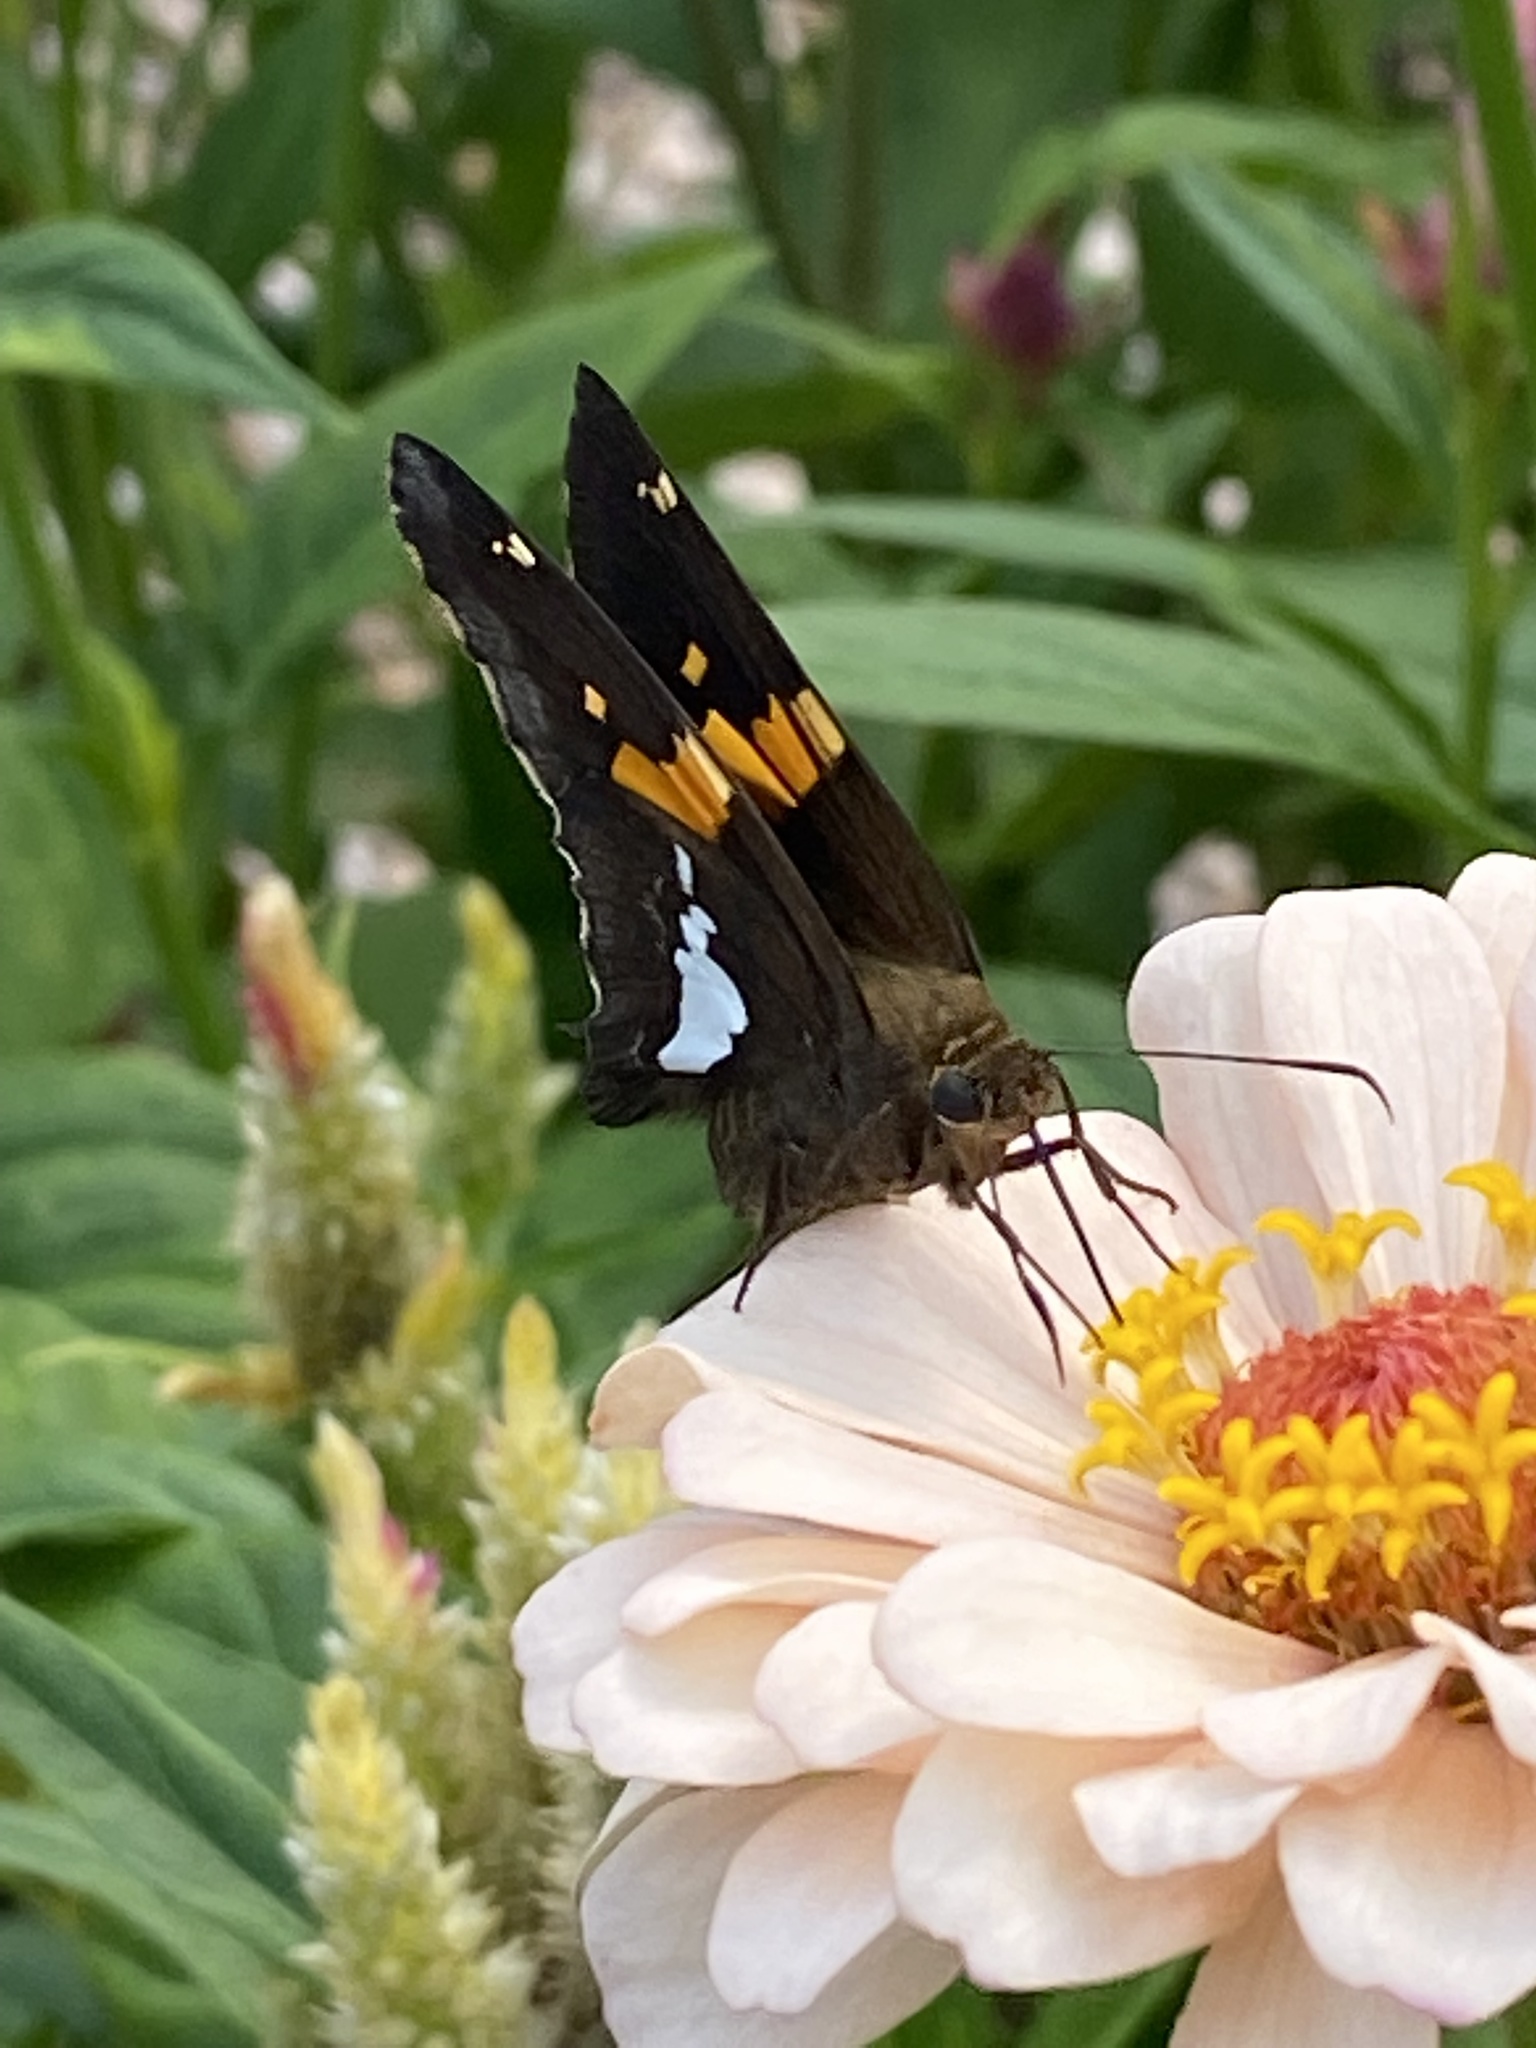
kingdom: Animalia
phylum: Arthropoda
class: Insecta
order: Lepidoptera
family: Hesperiidae
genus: Epargyreus
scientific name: Epargyreus clarus
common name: Silver-spotted skipper
